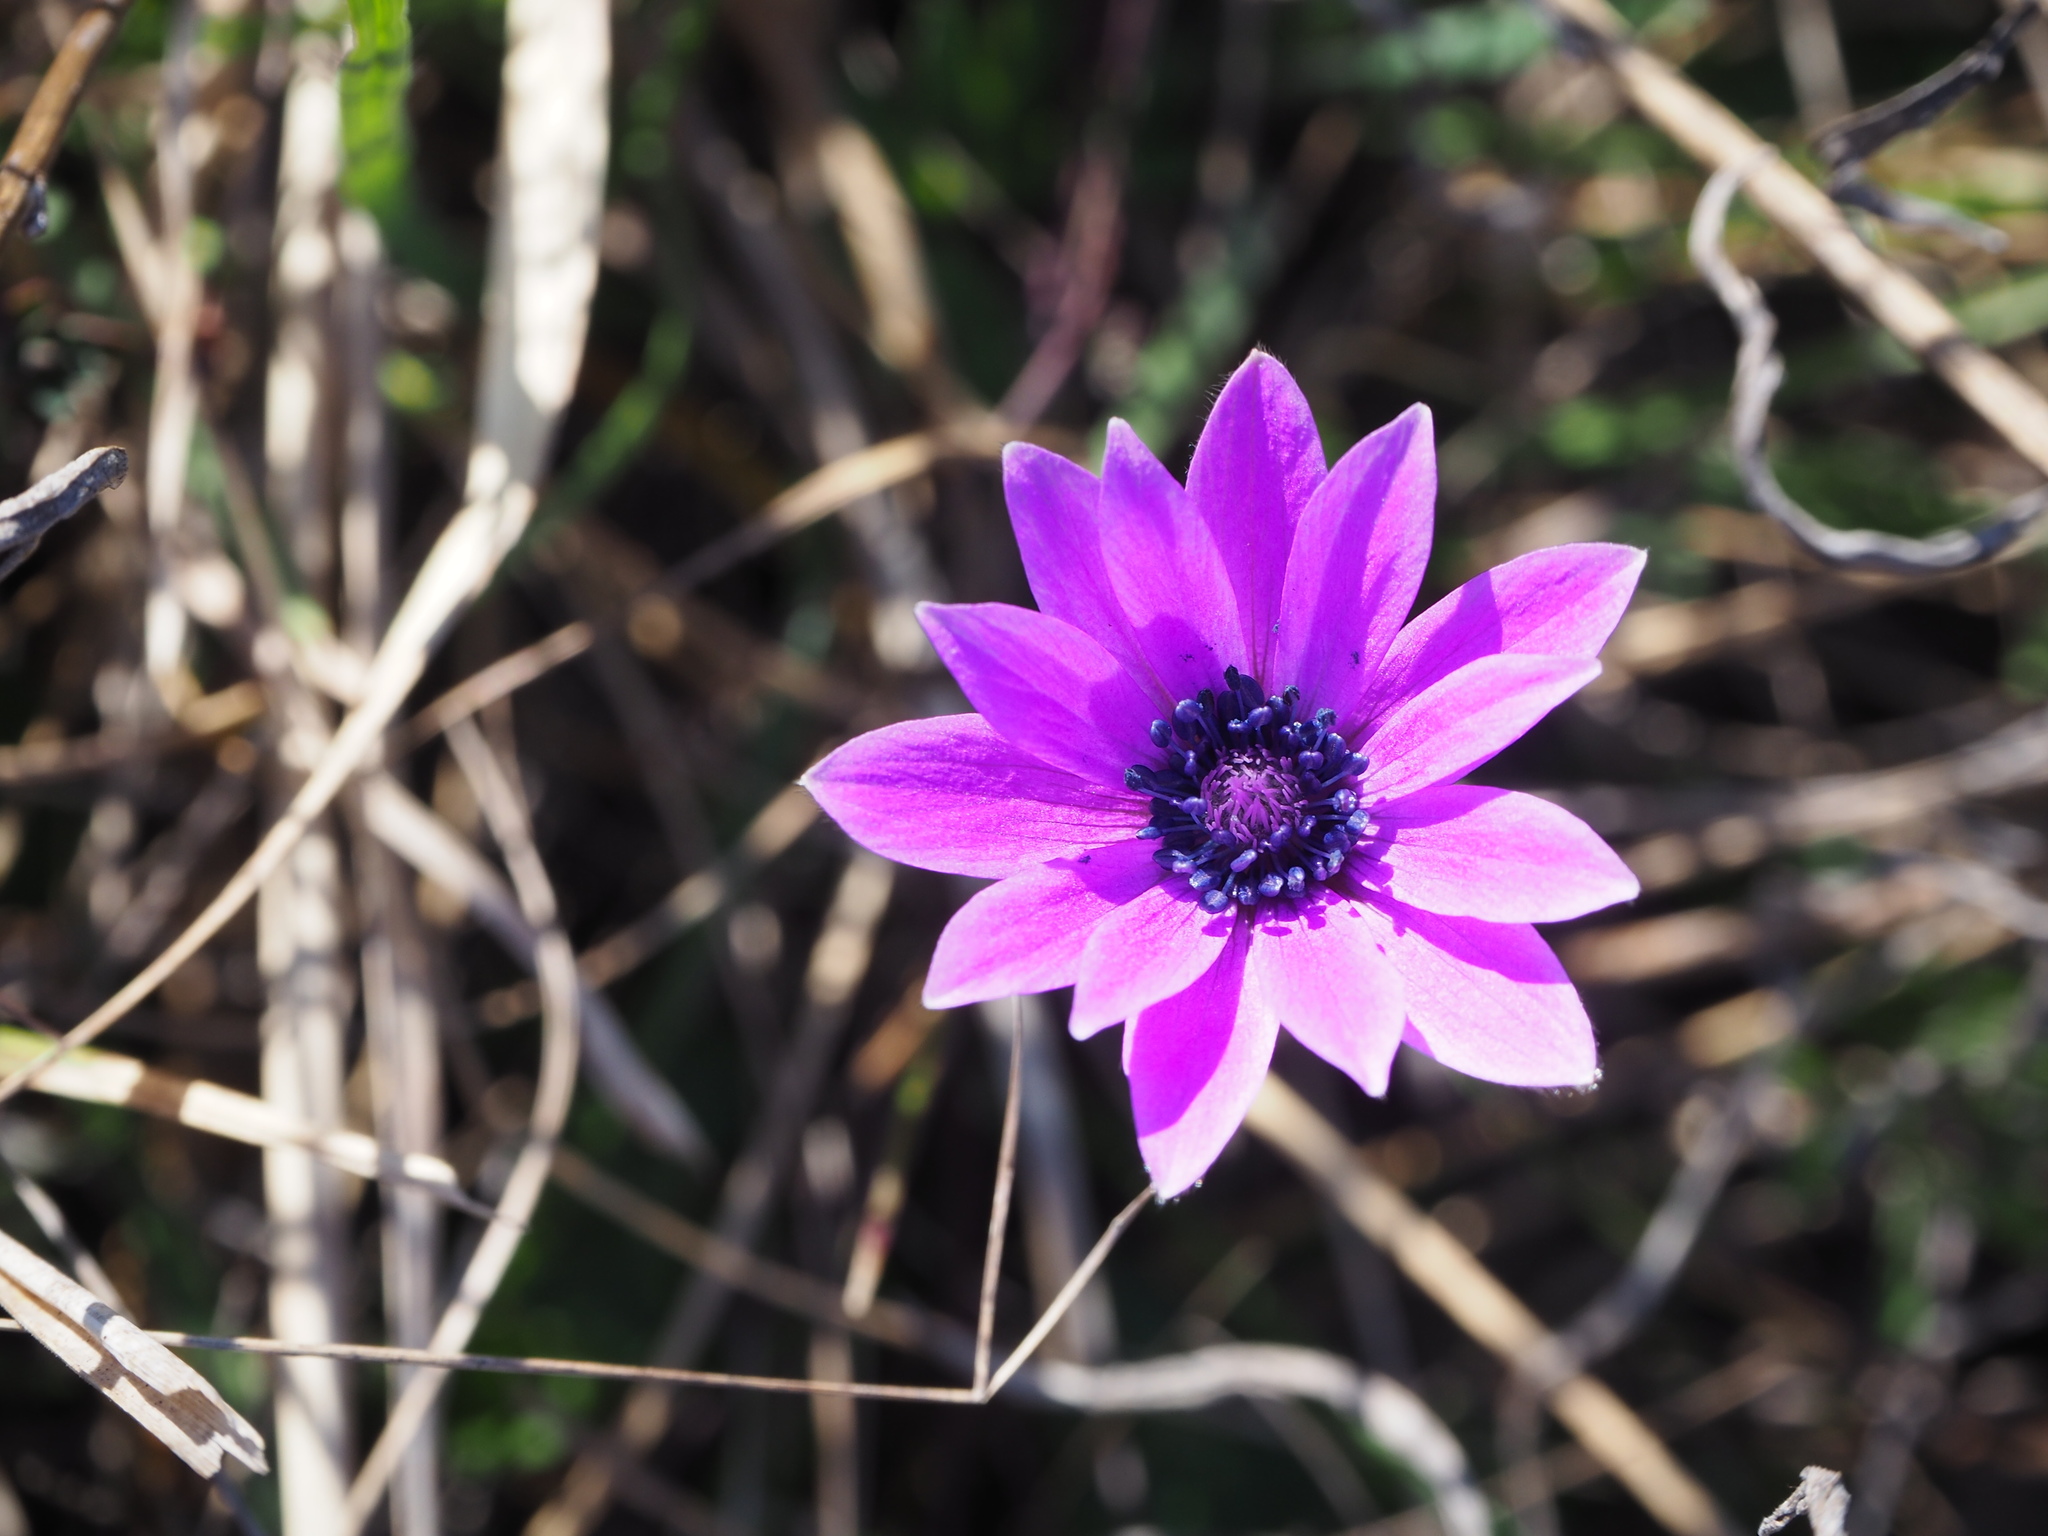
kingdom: Plantae
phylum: Tracheophyta
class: Magnoliopsida
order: Ranunculales
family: Ranunculaceae
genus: Anemone
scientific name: Anemone hortensis
